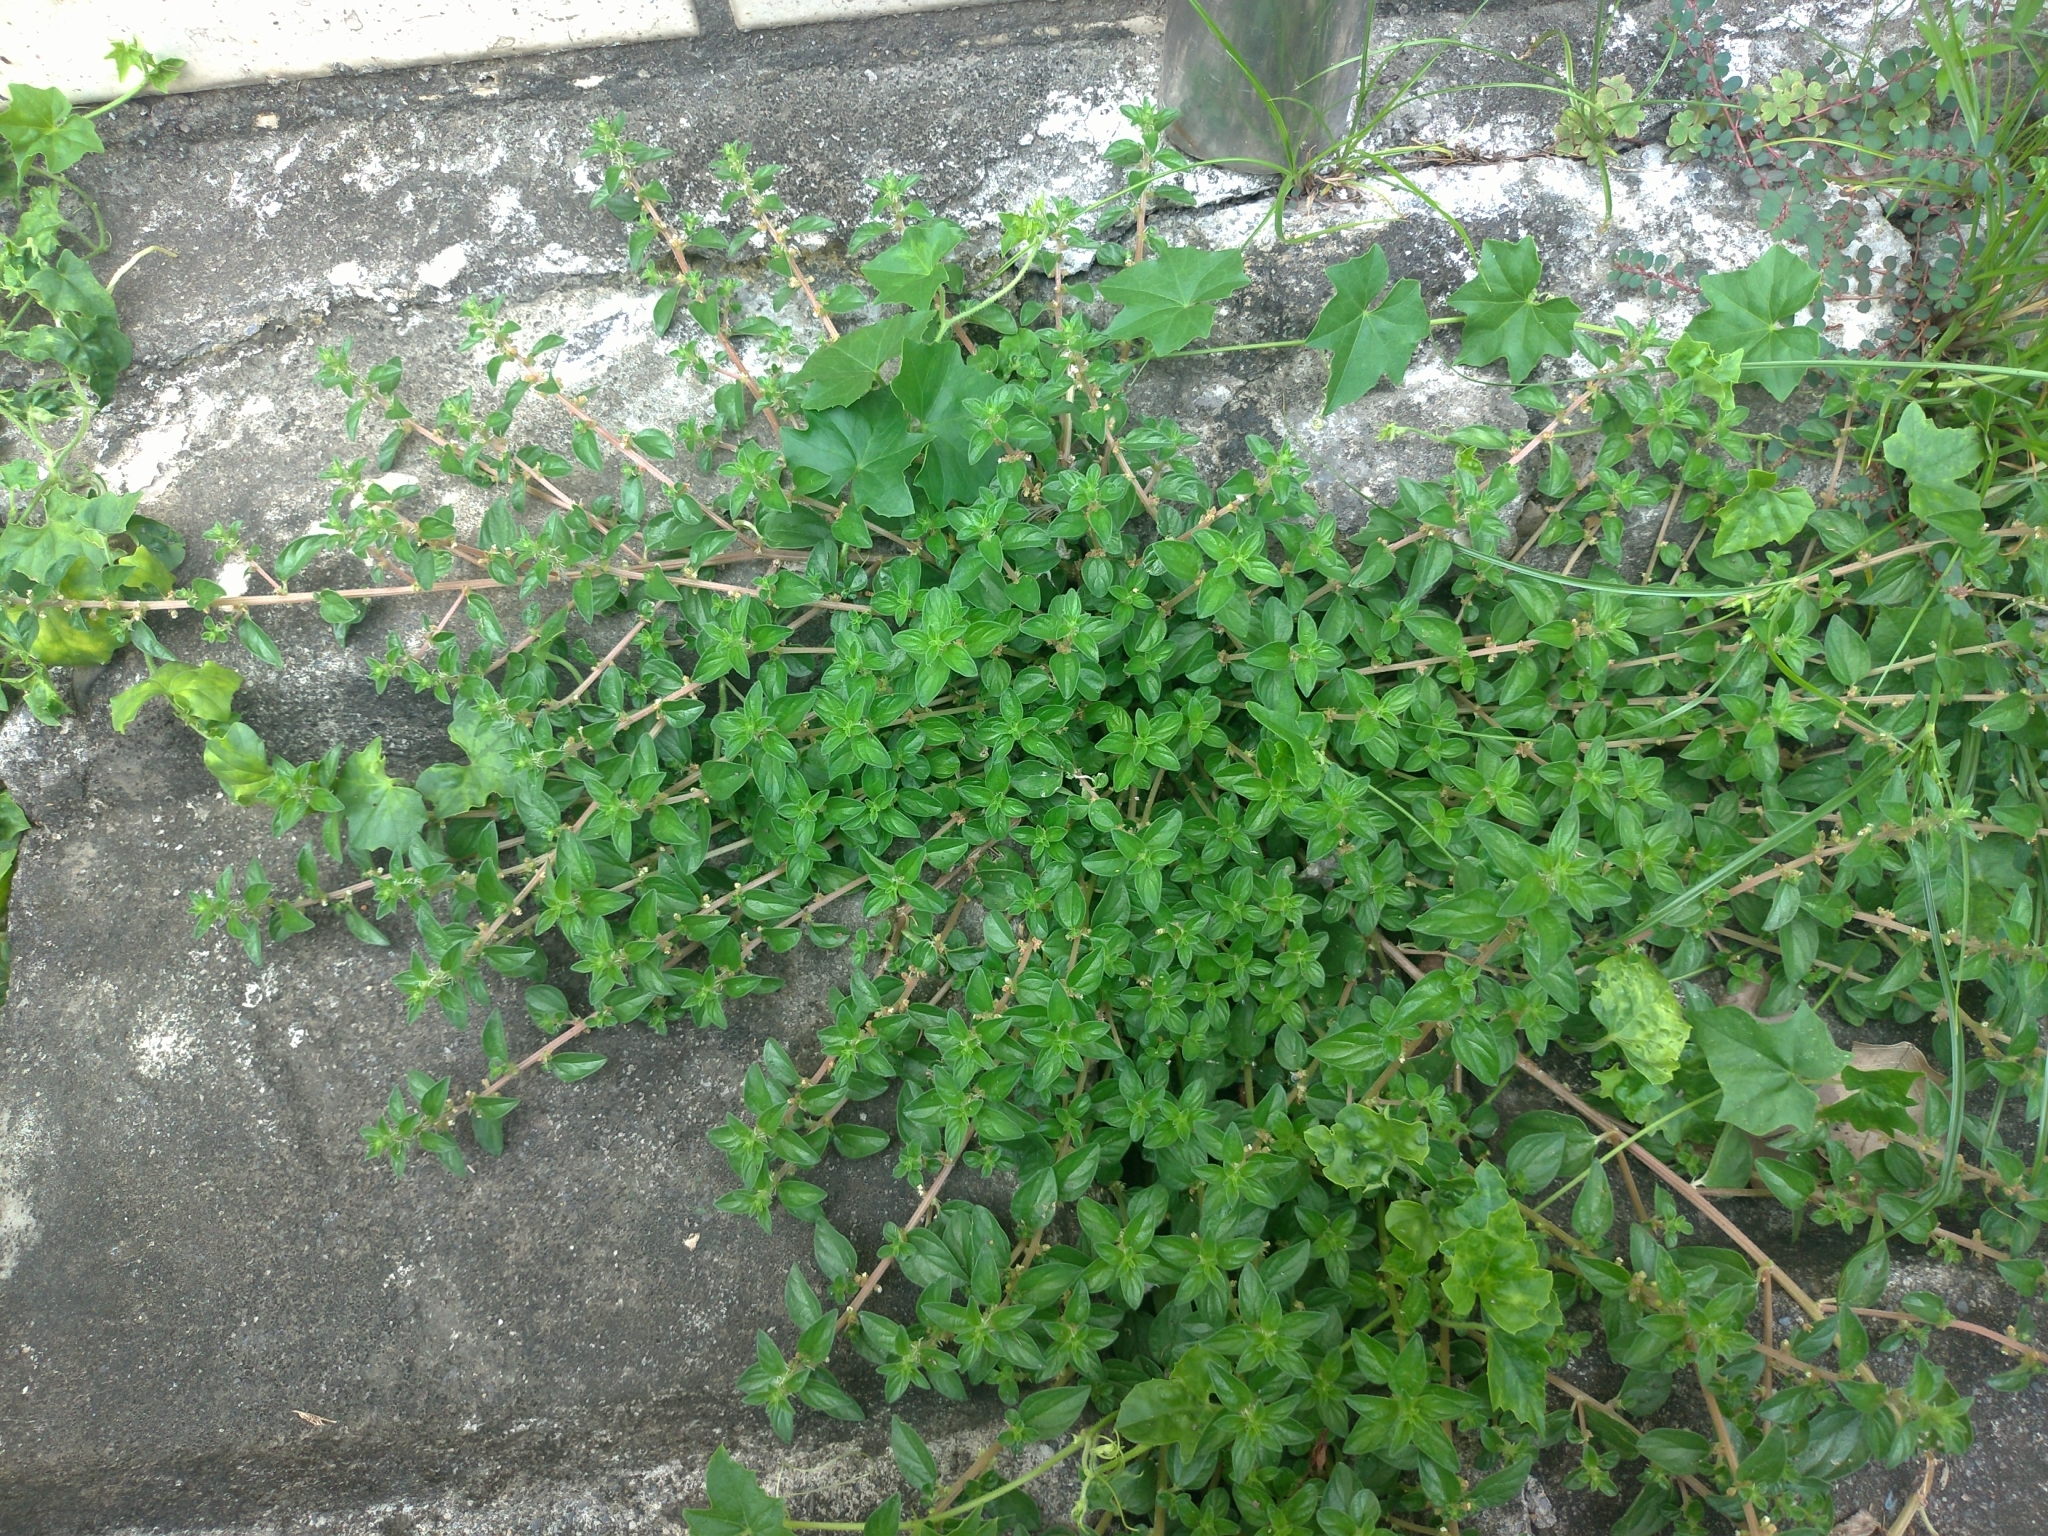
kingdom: Plantae
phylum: Tracheophyta
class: Magnoliopsida
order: Rosales
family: Urticaceae
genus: Pouzolzia
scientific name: Pouzolzia zeylanica
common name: Graceful pouzolzsbush
